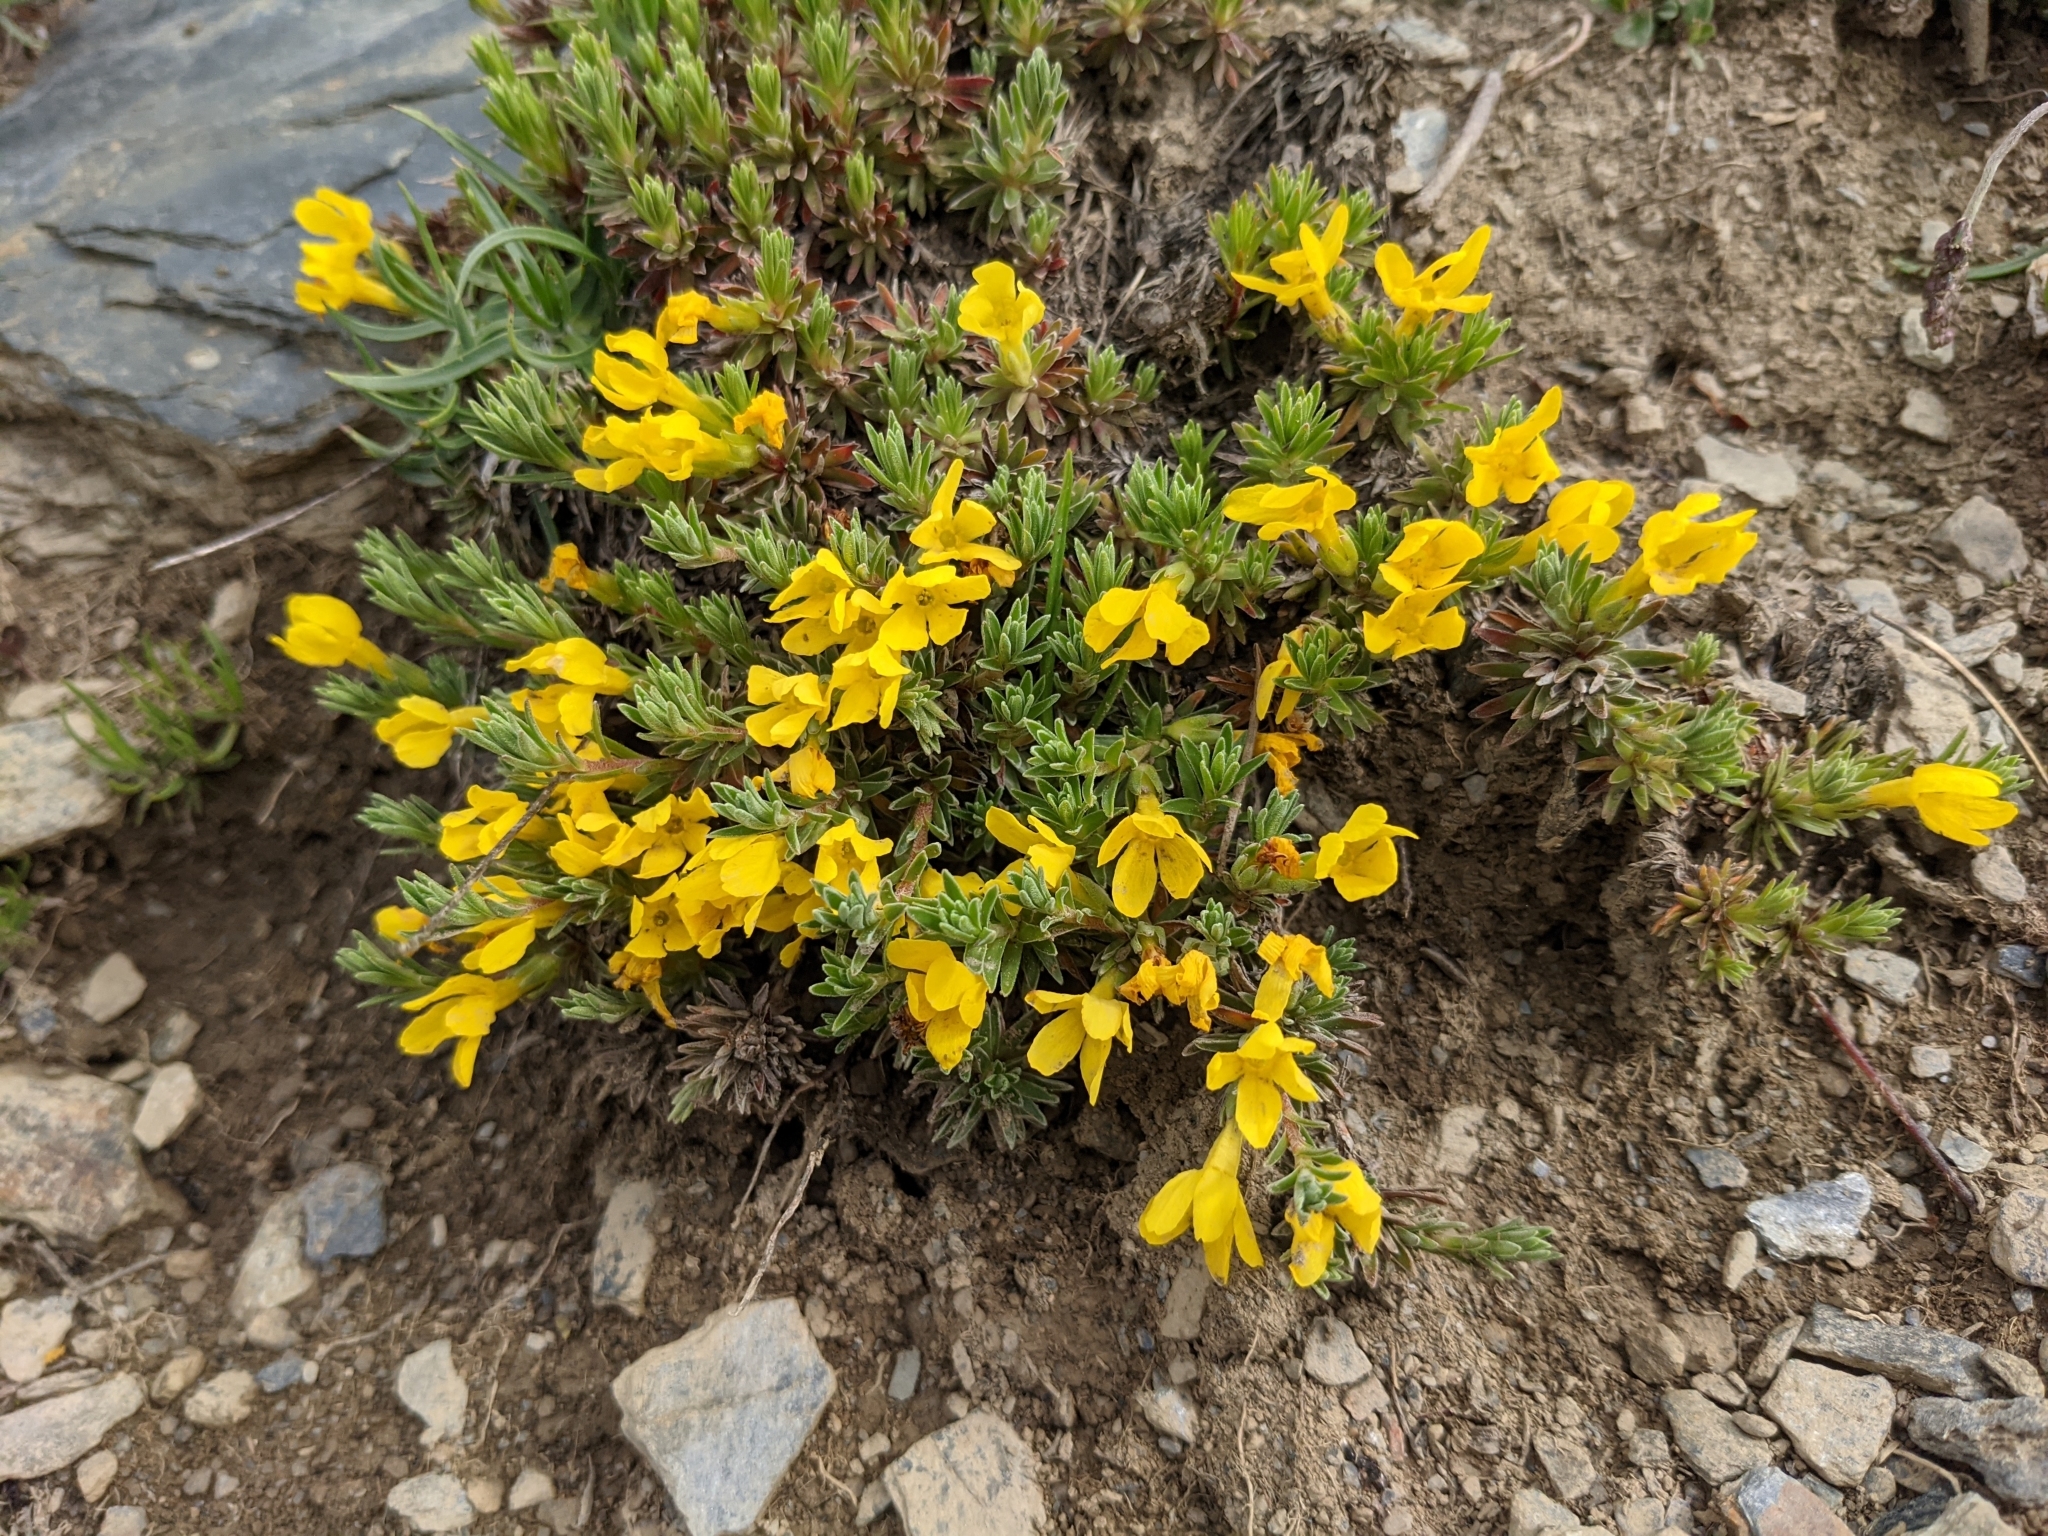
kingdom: Plantae
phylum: Tracheophyta
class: Magnoliopsida
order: Ericales
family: Primulaceae
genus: Androsace
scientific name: Androsace vitaliana
